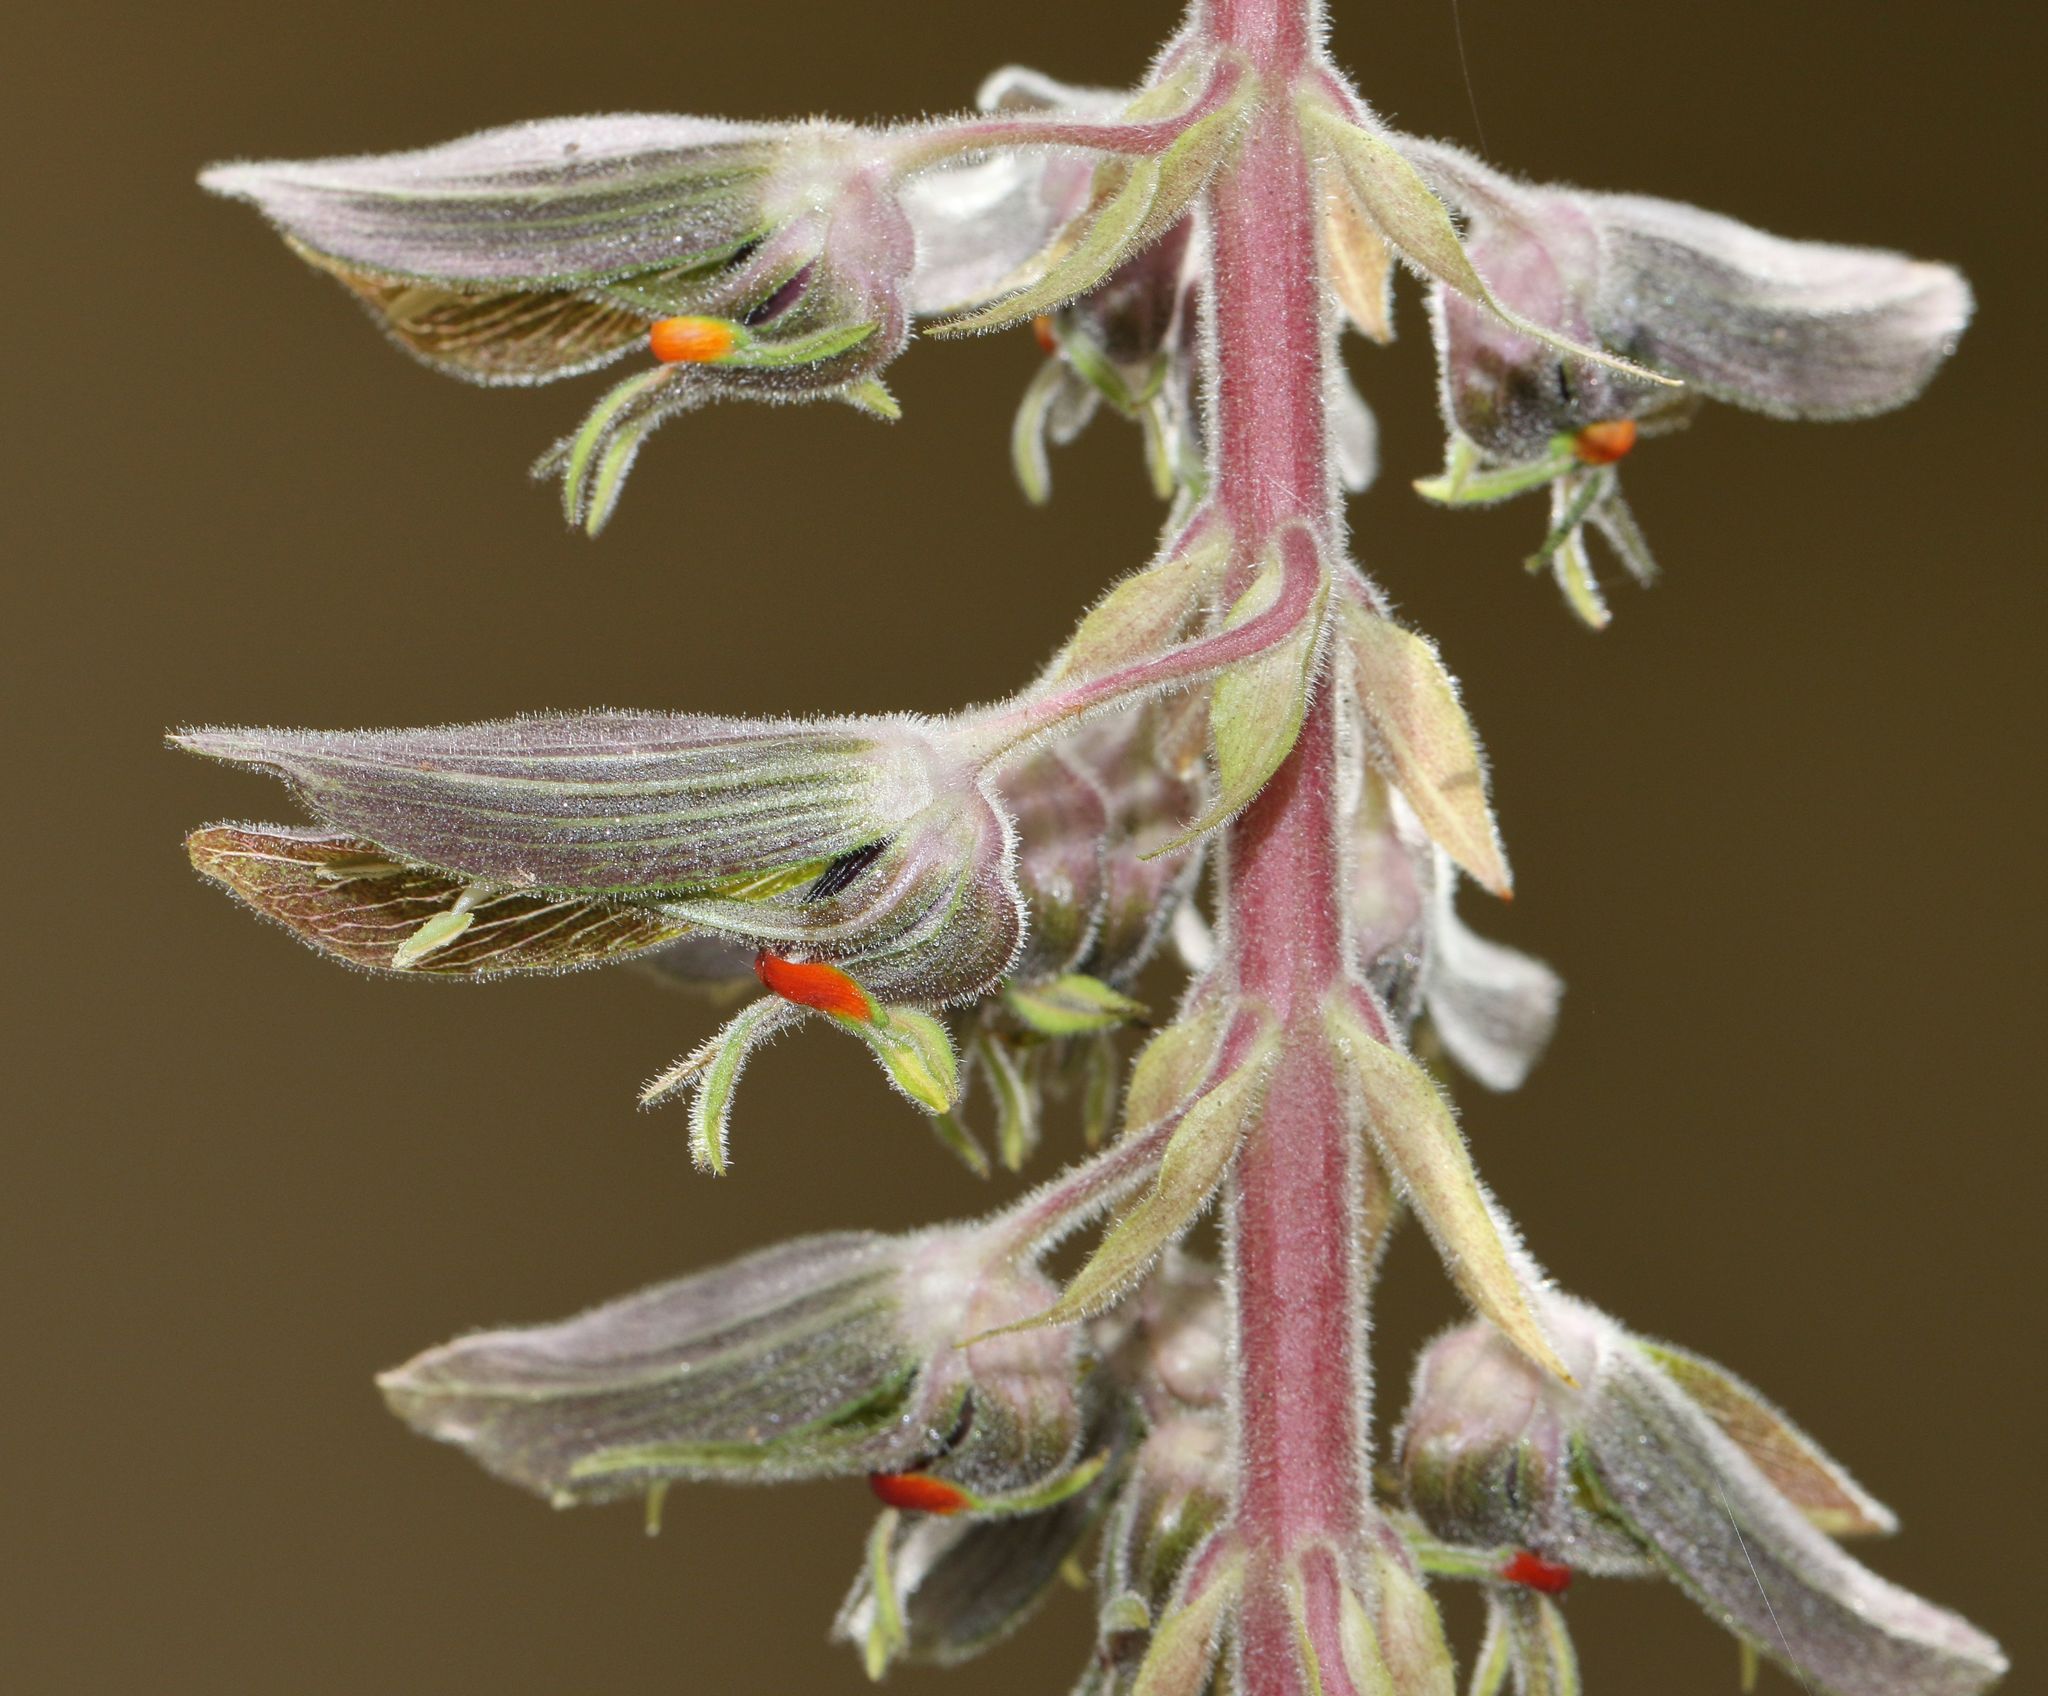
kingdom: Plantae
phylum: Tracheophyta
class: Magnoliopsida
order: Geraniales
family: Melianthaceae
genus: Melianthus
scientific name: Melianthus villosus
